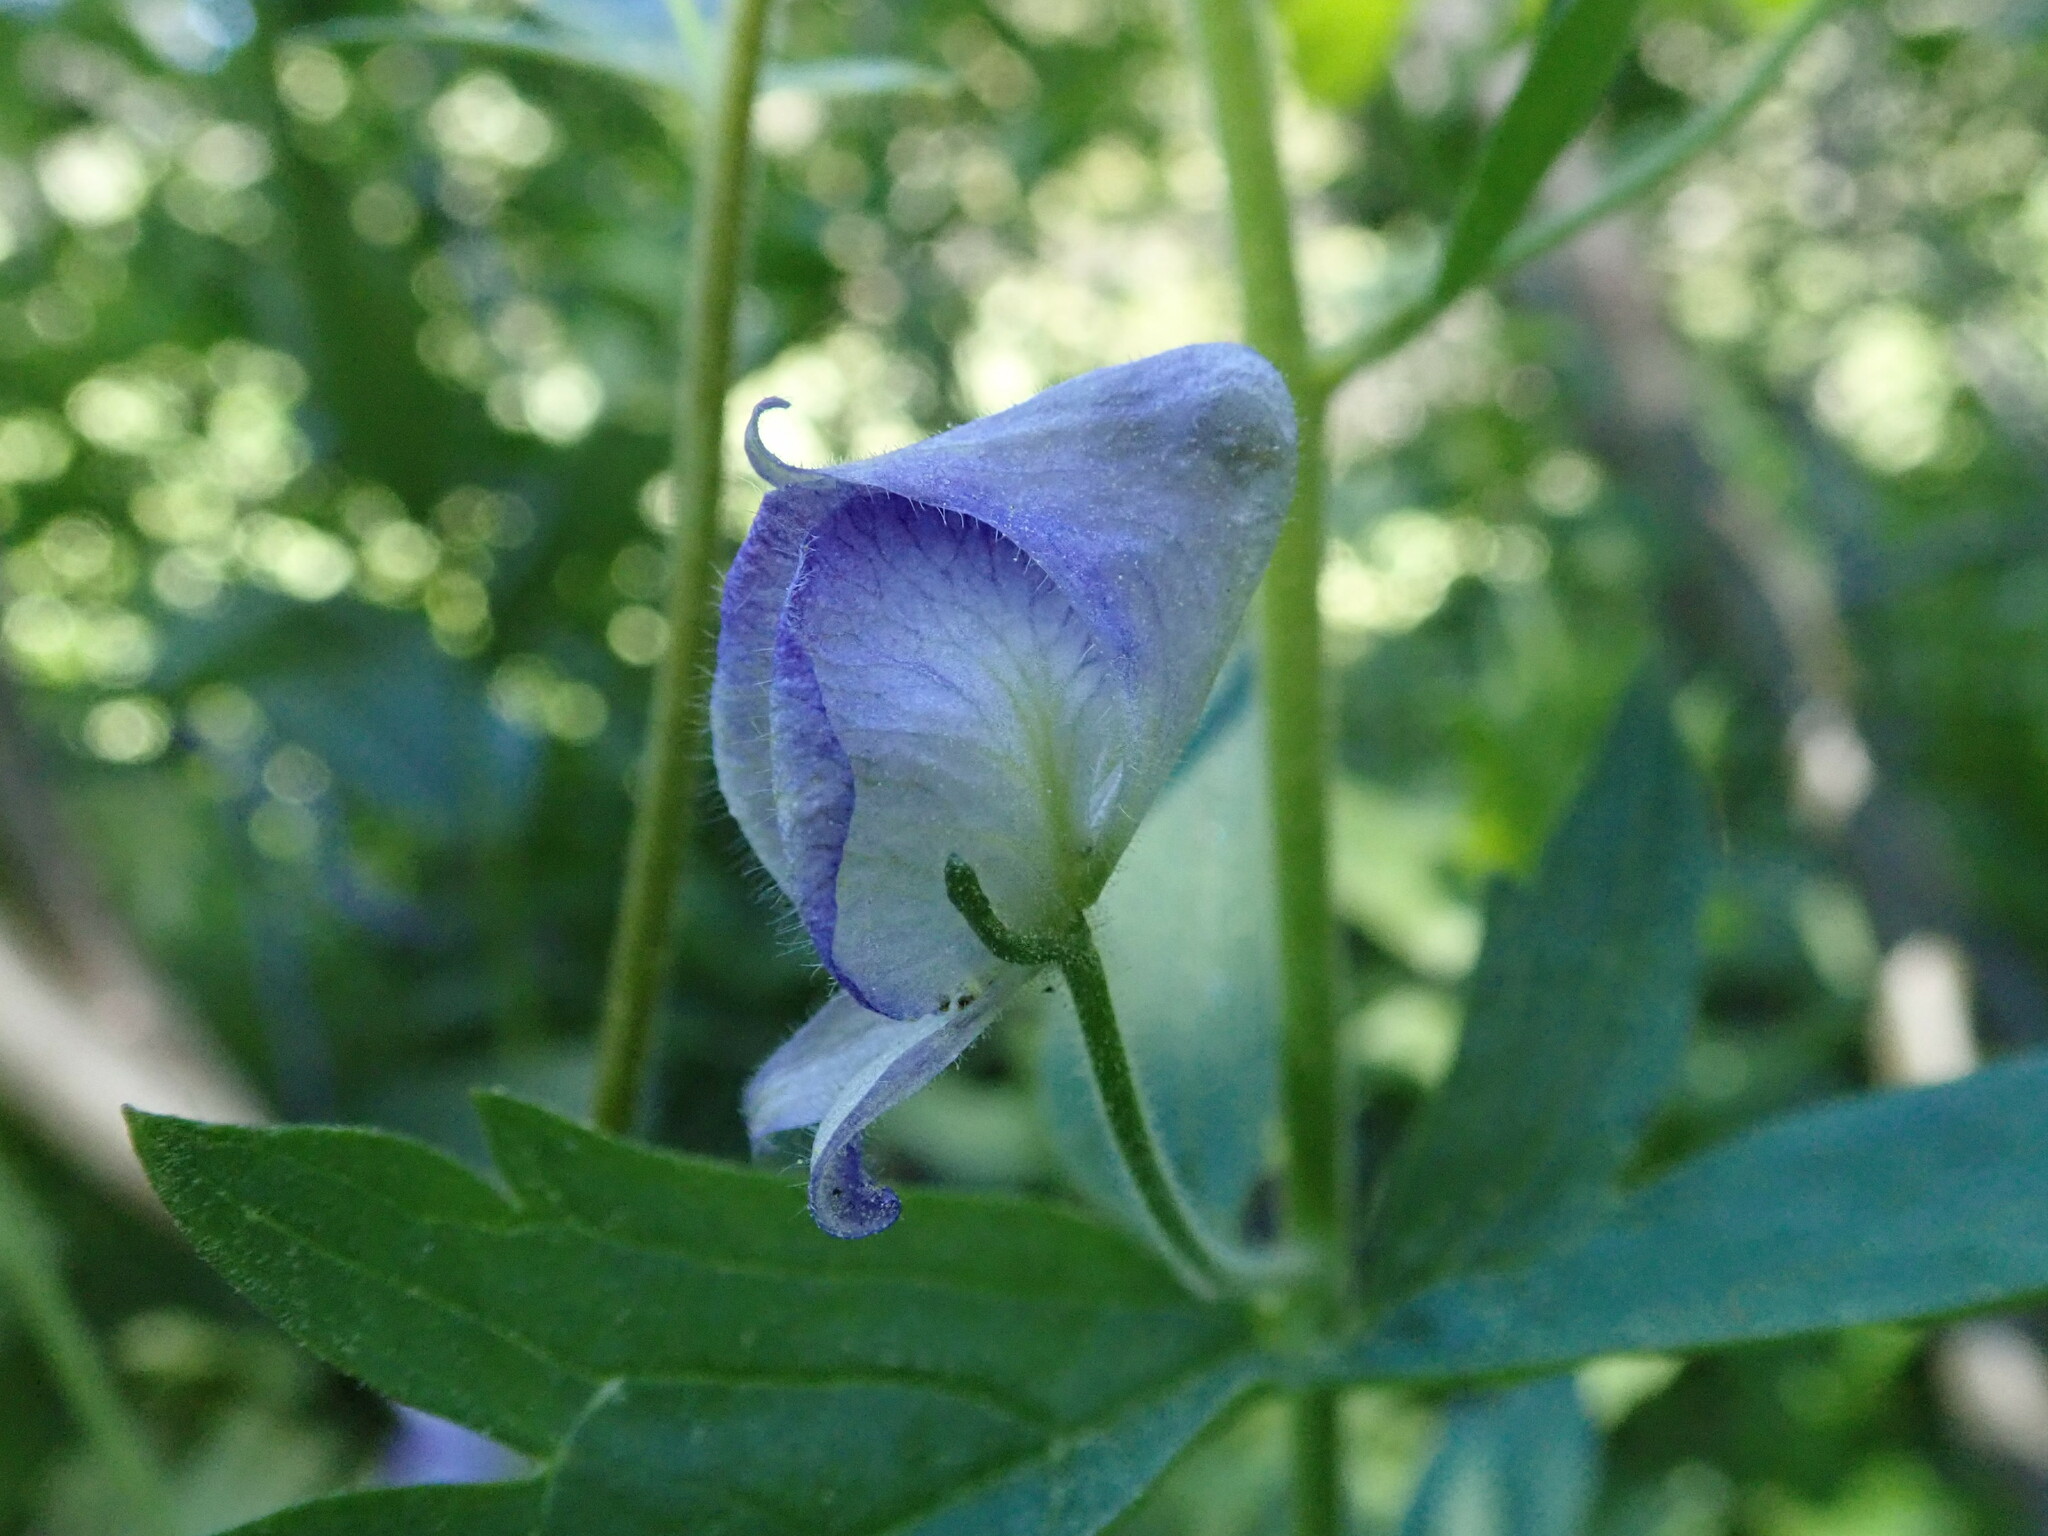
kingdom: Plantae
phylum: Tracheophyta
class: Magnoliopsida
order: Ranunculales
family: Ranunculaceae
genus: Aconitum
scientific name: Aconitum columbianum
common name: Columbia aconite
